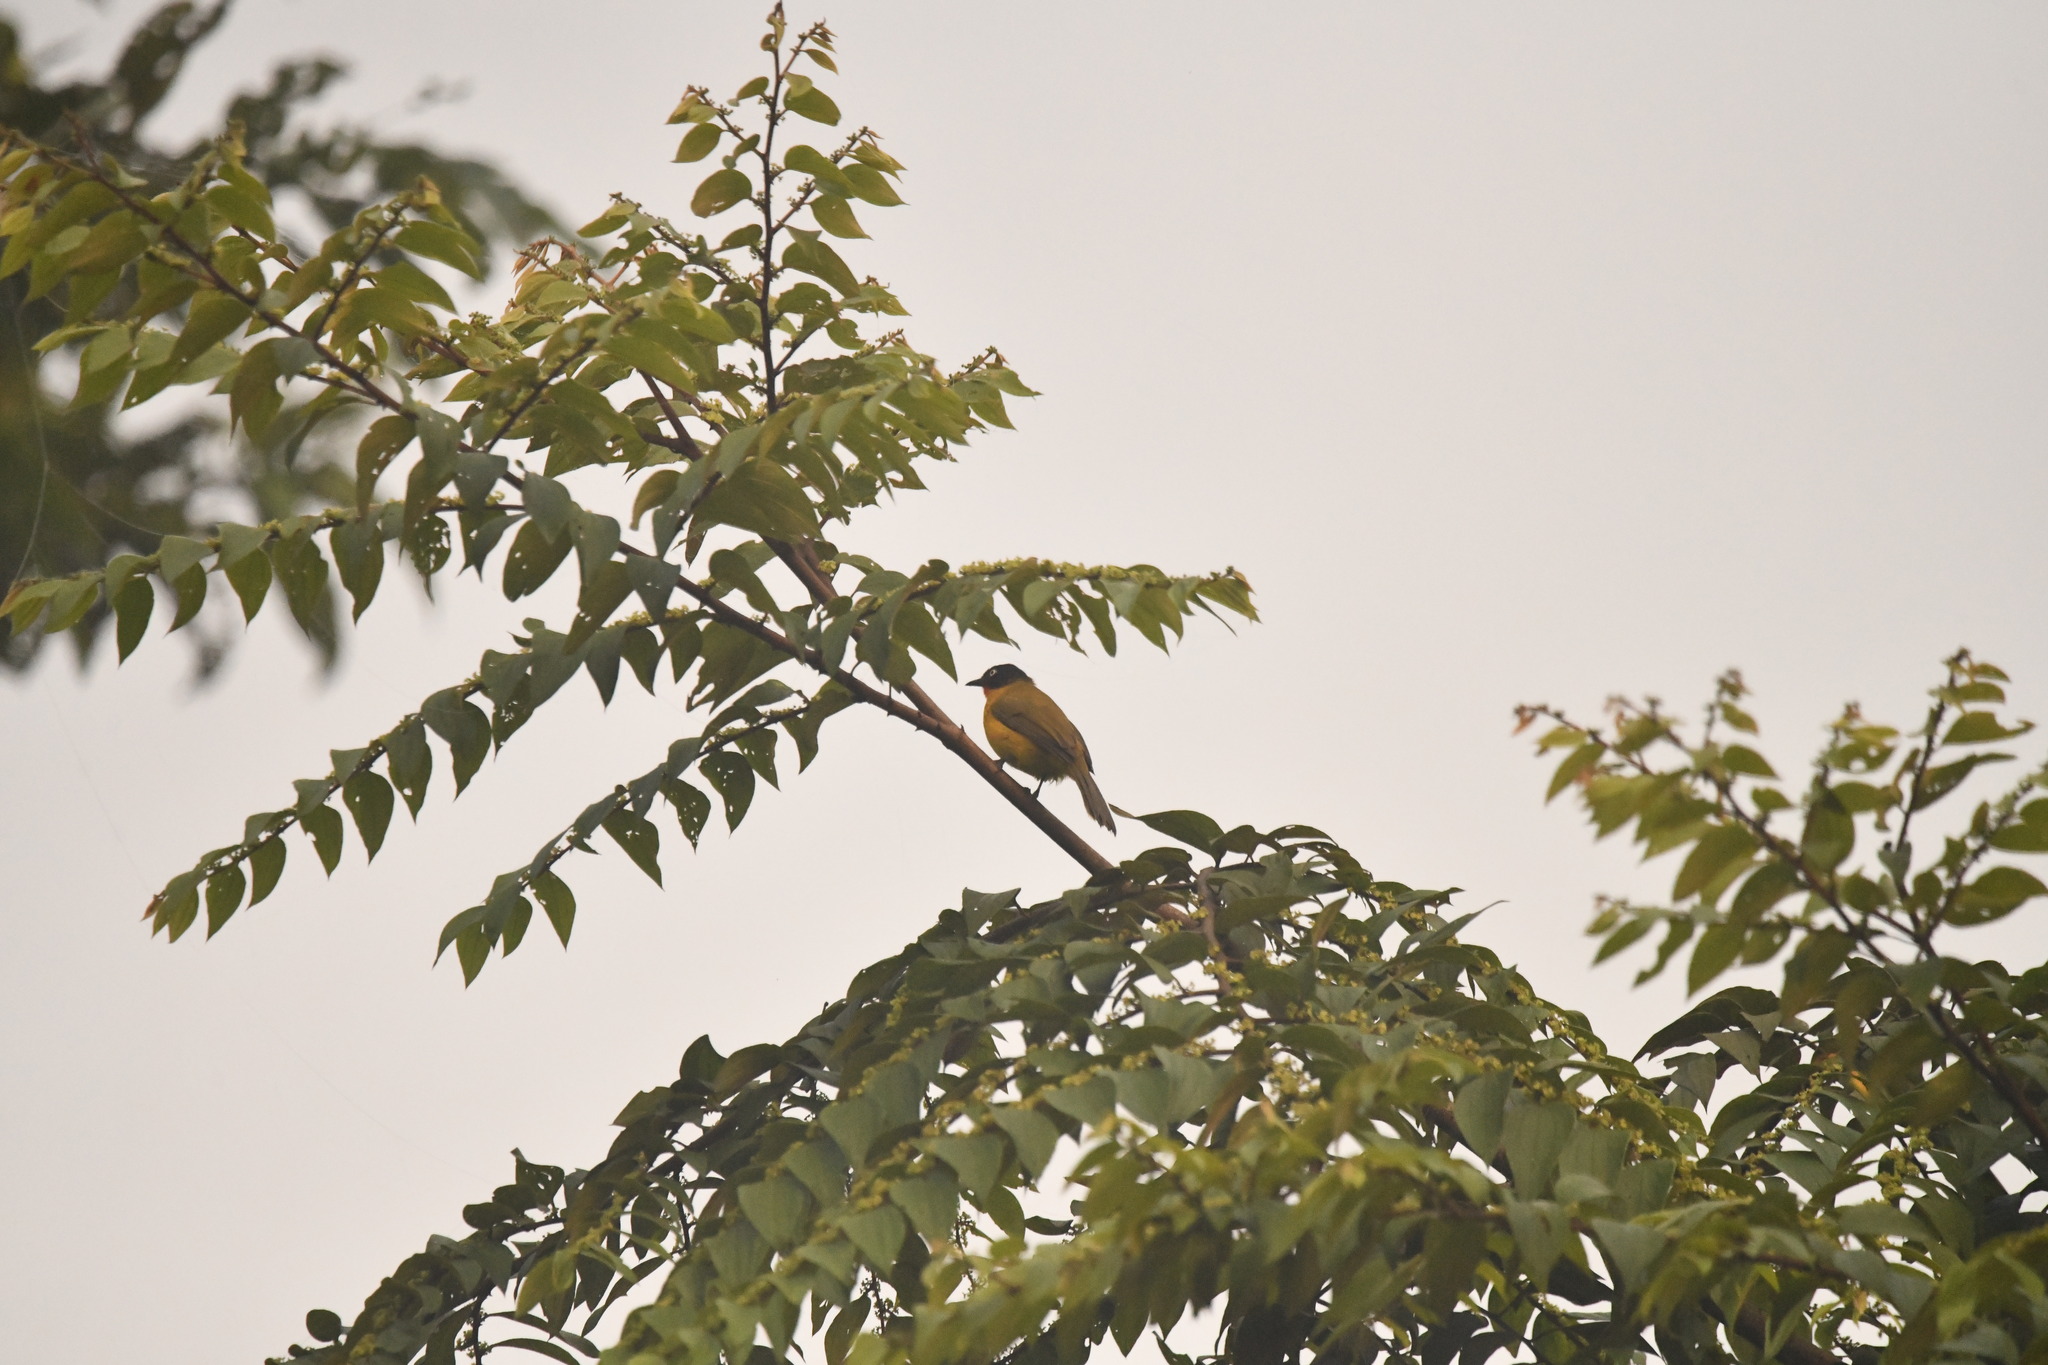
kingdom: Animalia
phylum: Chordata
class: Aves
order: Passeriformes
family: Pycnonotidae
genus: Pycnonotus
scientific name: Pycnonotus gularis
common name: Flame-throated bulbul
